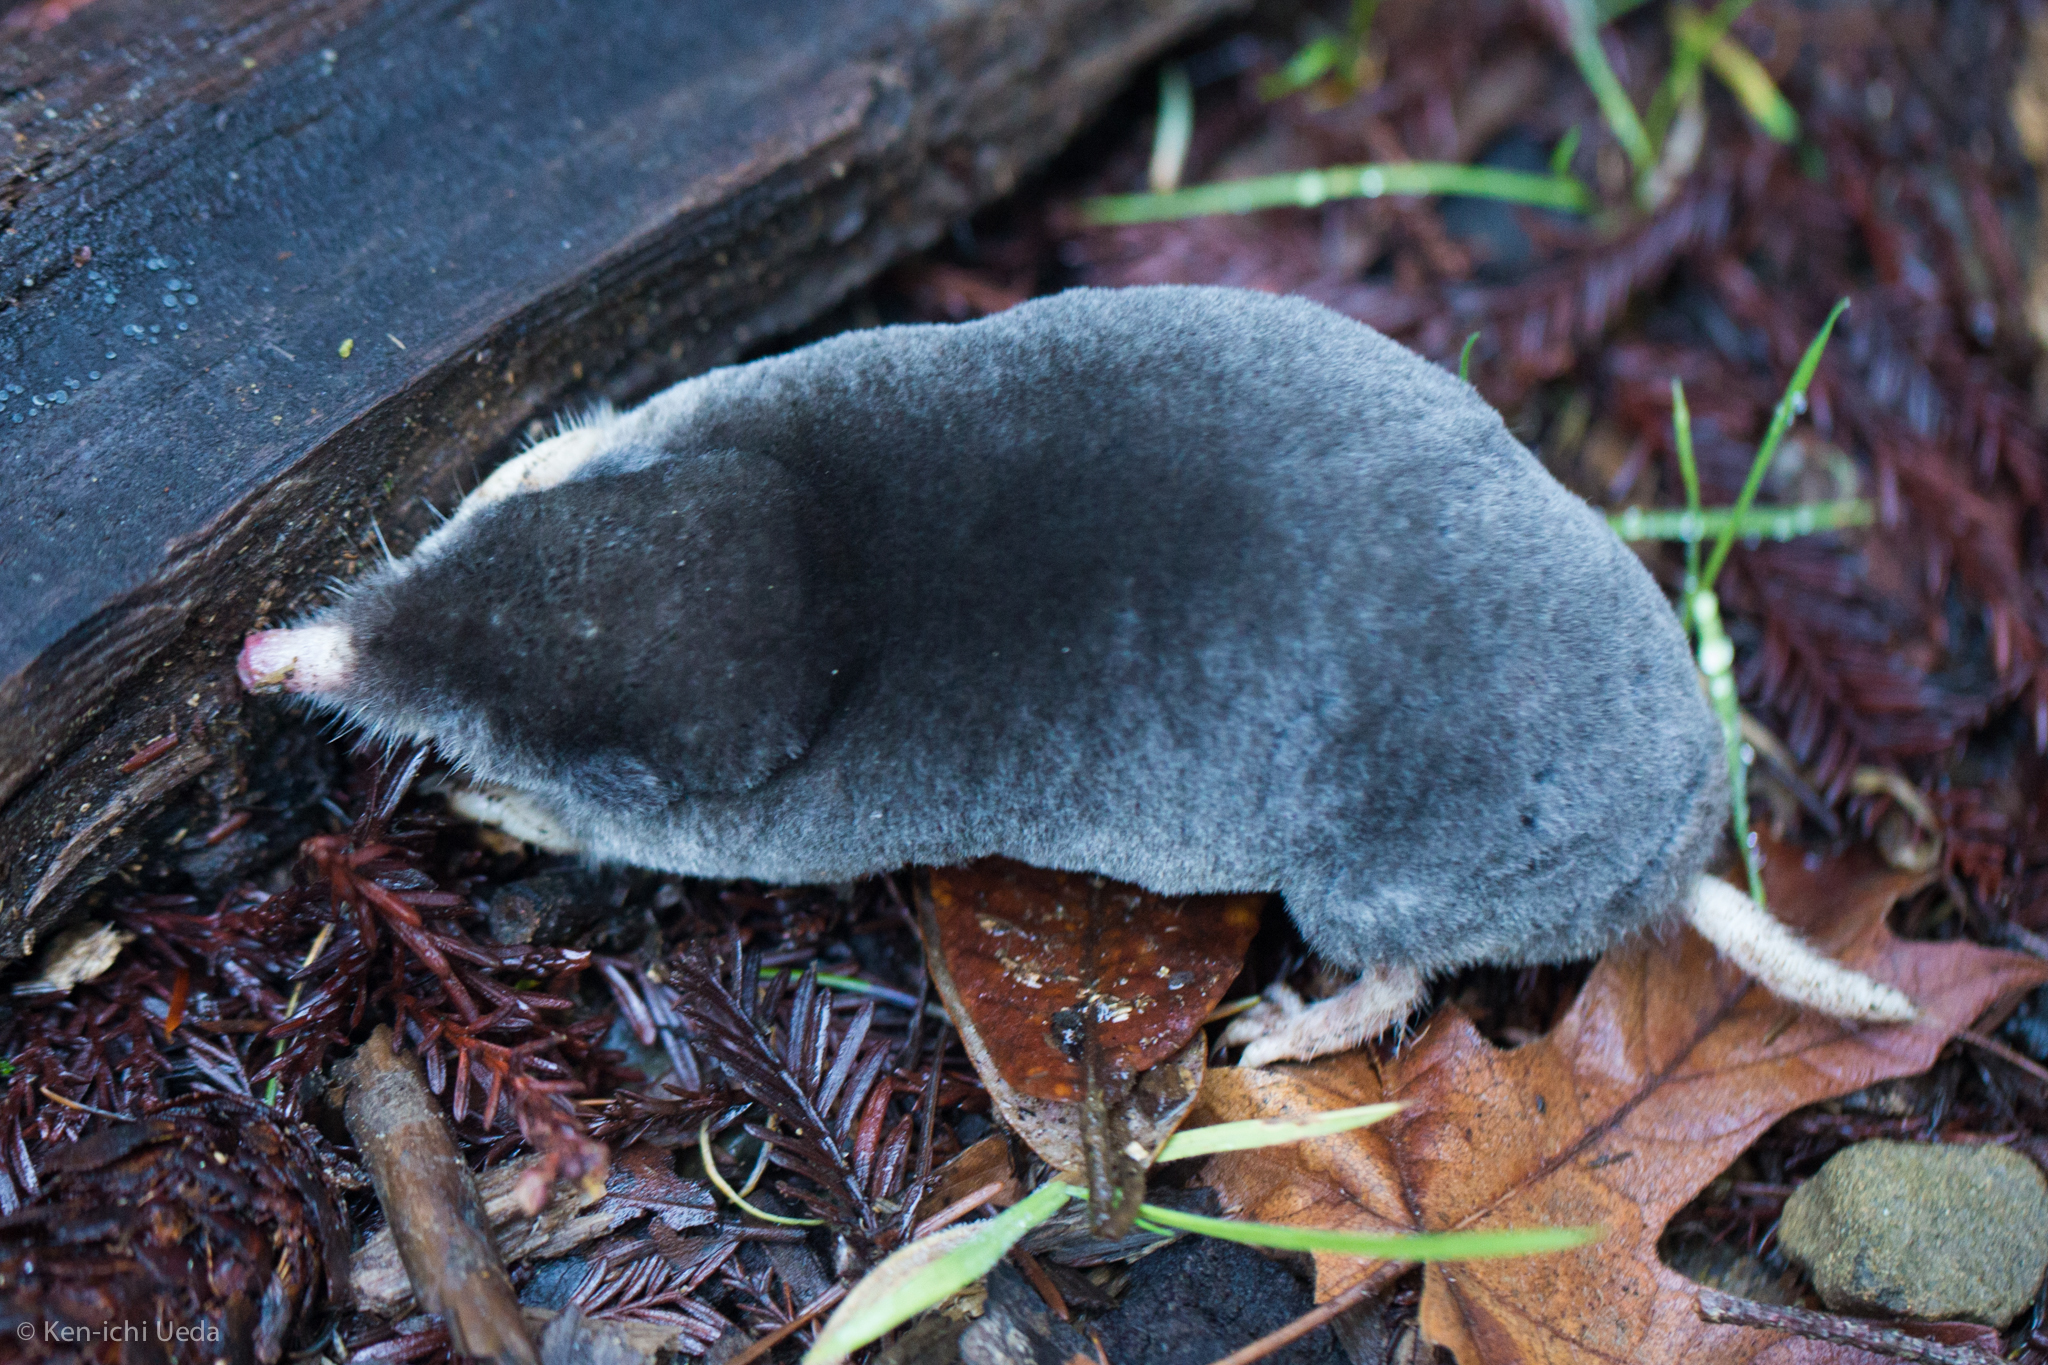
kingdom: Animalia
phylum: Chordata
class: Mammalia
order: Soricomorpha
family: Talpidae
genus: Scapanus
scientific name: Scapanus latimanus
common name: Broad-footed mole
